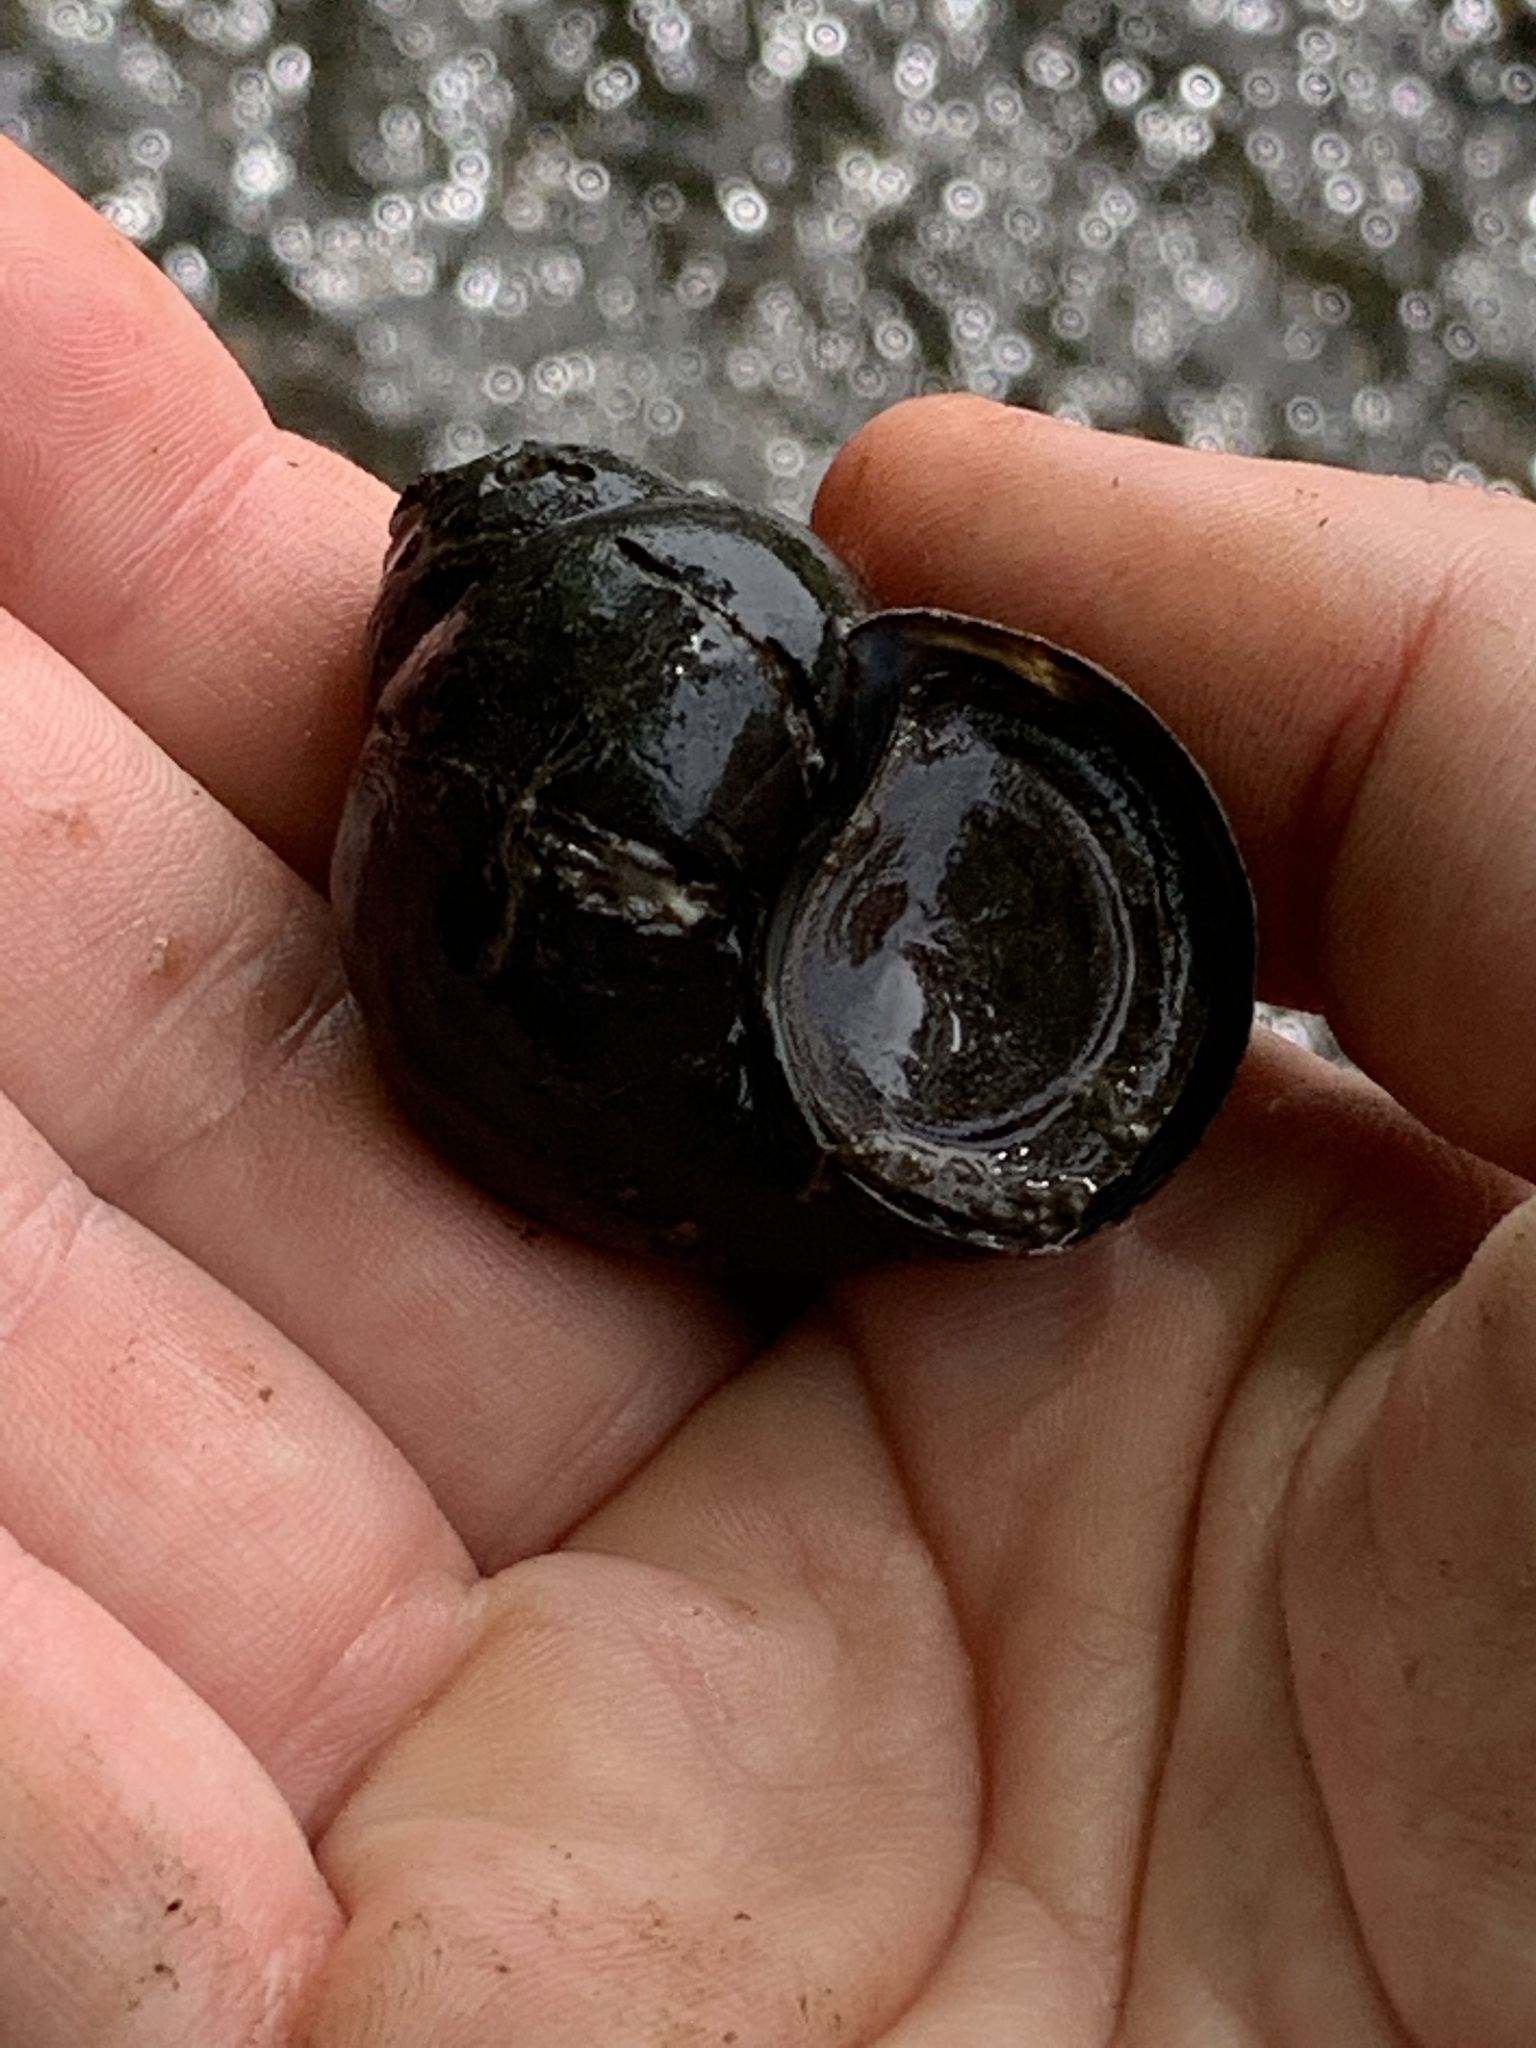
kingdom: Animalia
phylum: Mollusca
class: Gastropoda
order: Architaenioglossa
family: Viviparidae
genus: Cipangopaludina
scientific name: Cipangopaludina chinensis
